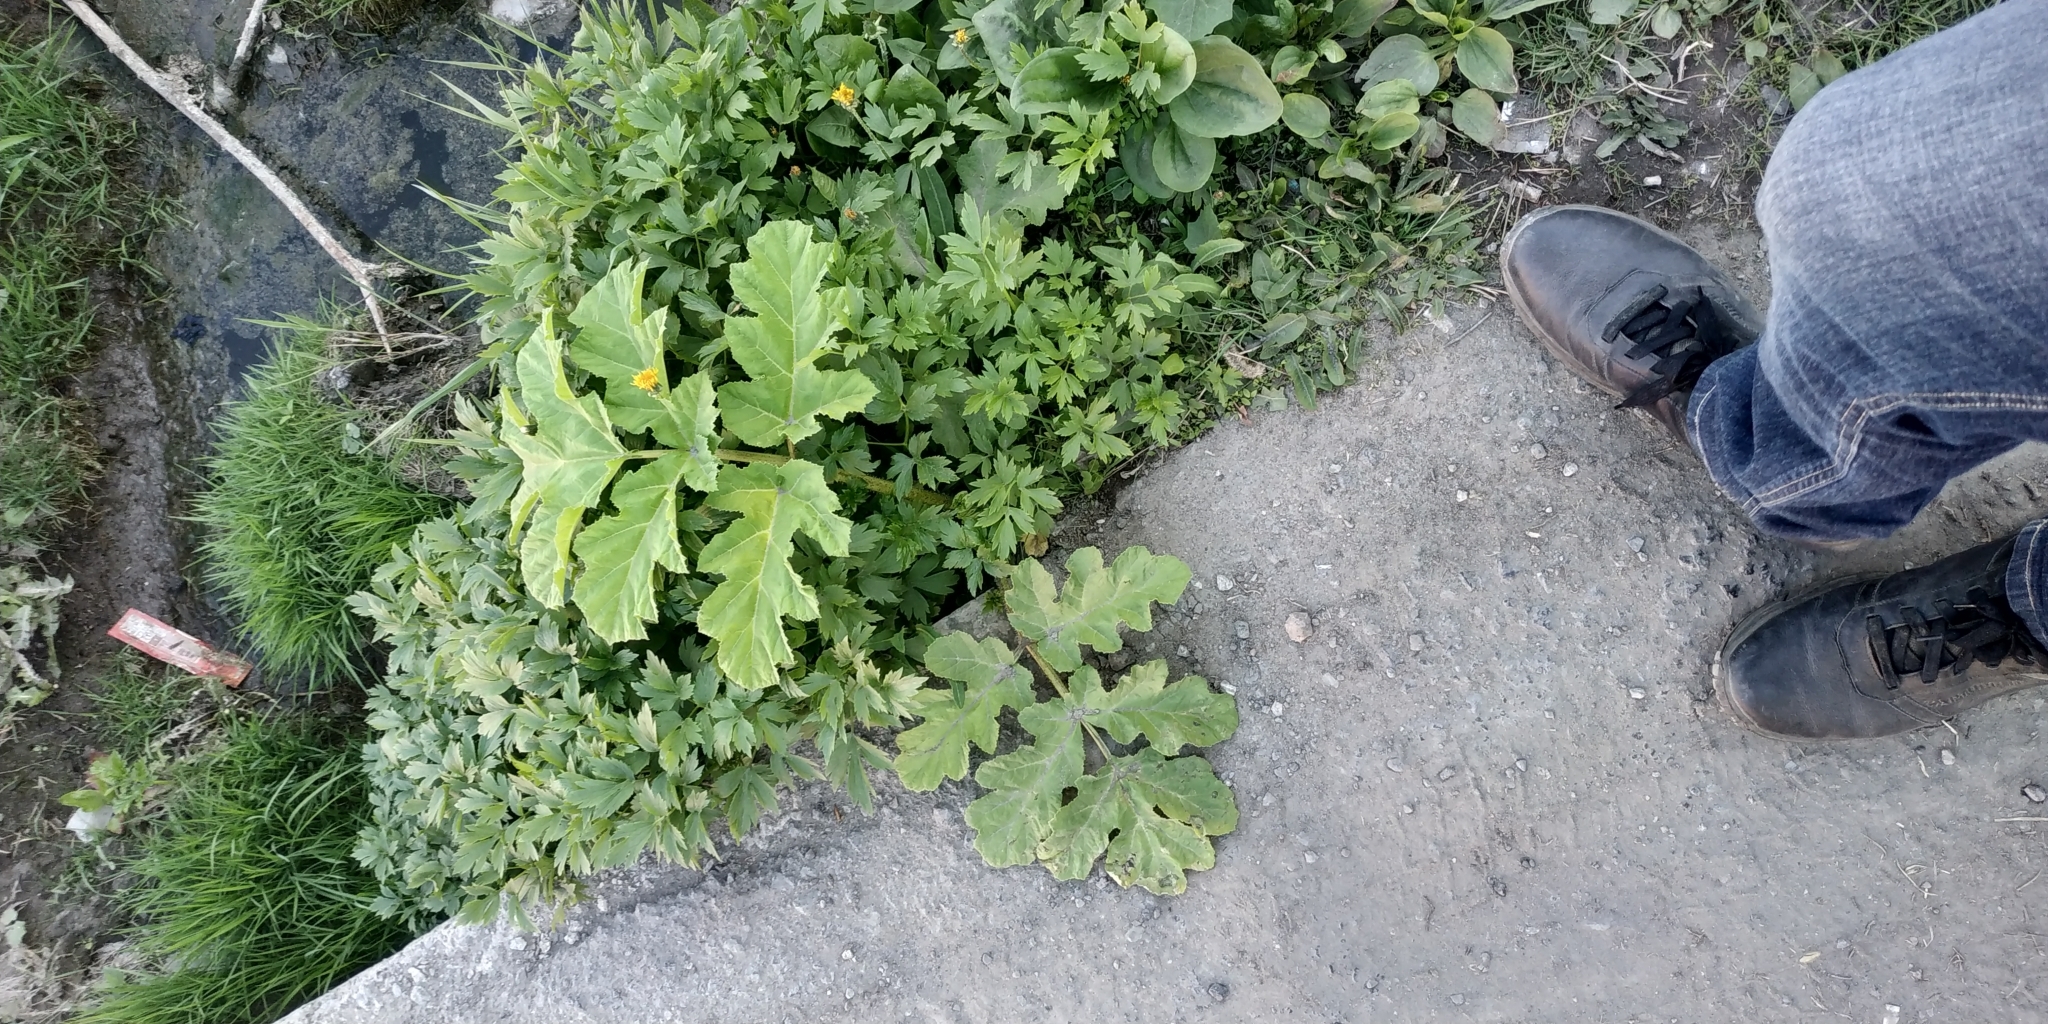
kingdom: Plantae
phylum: Tracheophyta
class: Magnoliopsida
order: Apiales
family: Apiaceae
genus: Heracleum
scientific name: Heracleum sosnowskyi
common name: Sosnowsky's hogweed
